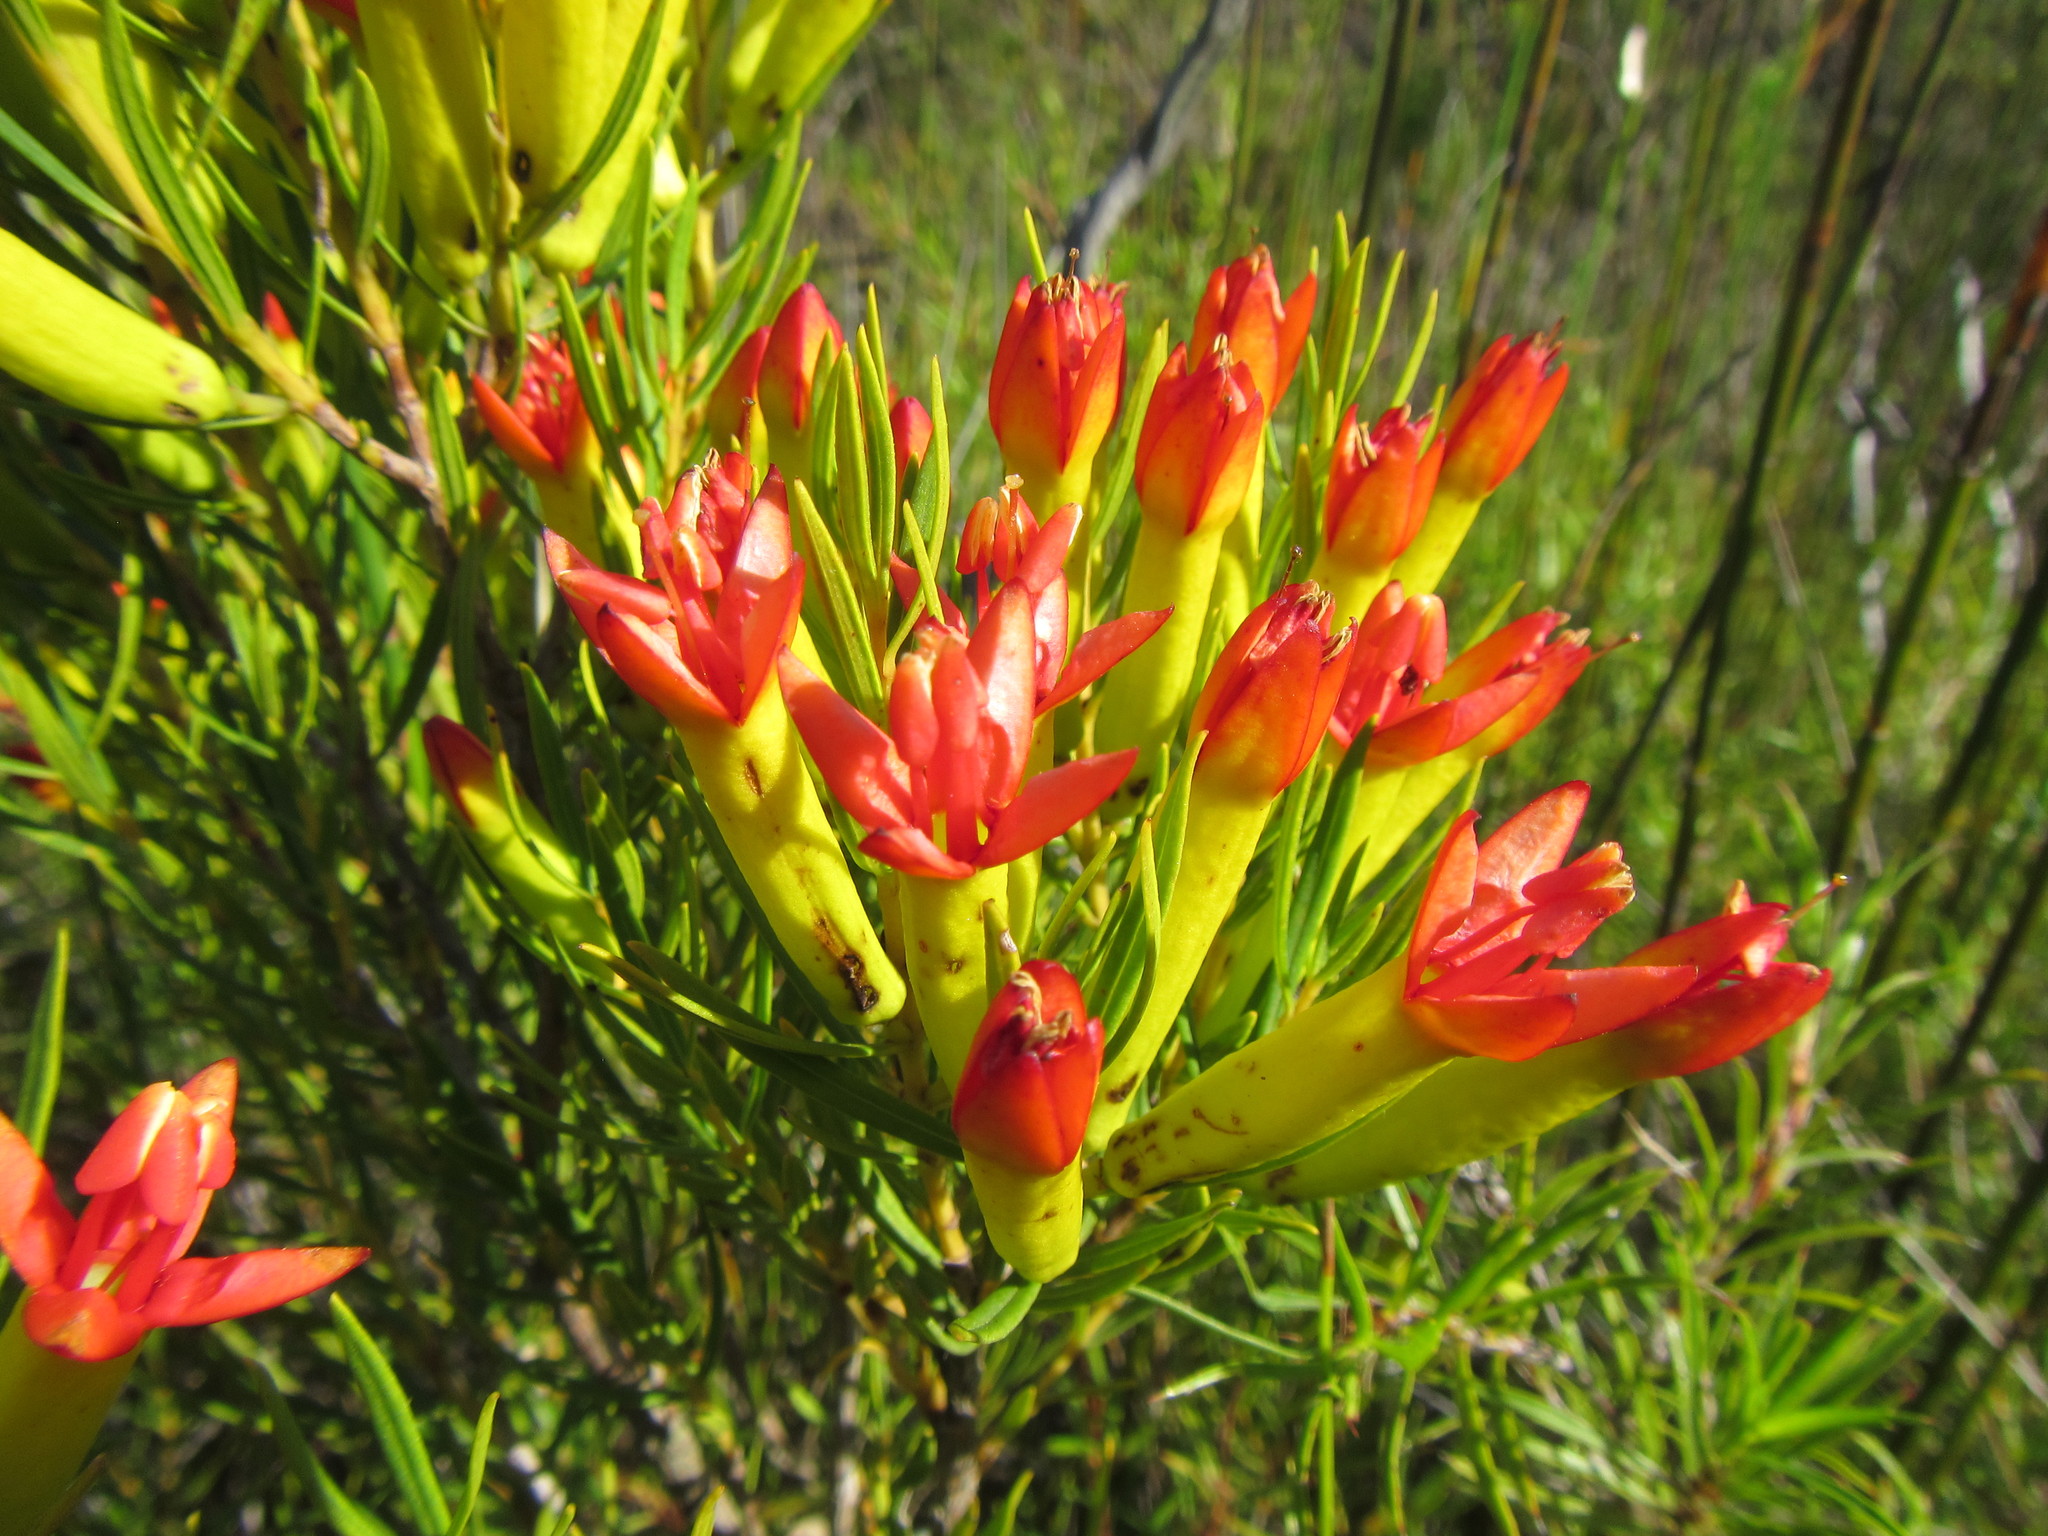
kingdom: Plantae
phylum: Tracheophyta
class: Magnoliopsida
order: Myrtales
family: Penaeaceae
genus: Endonema
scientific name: Endonema retzioides
